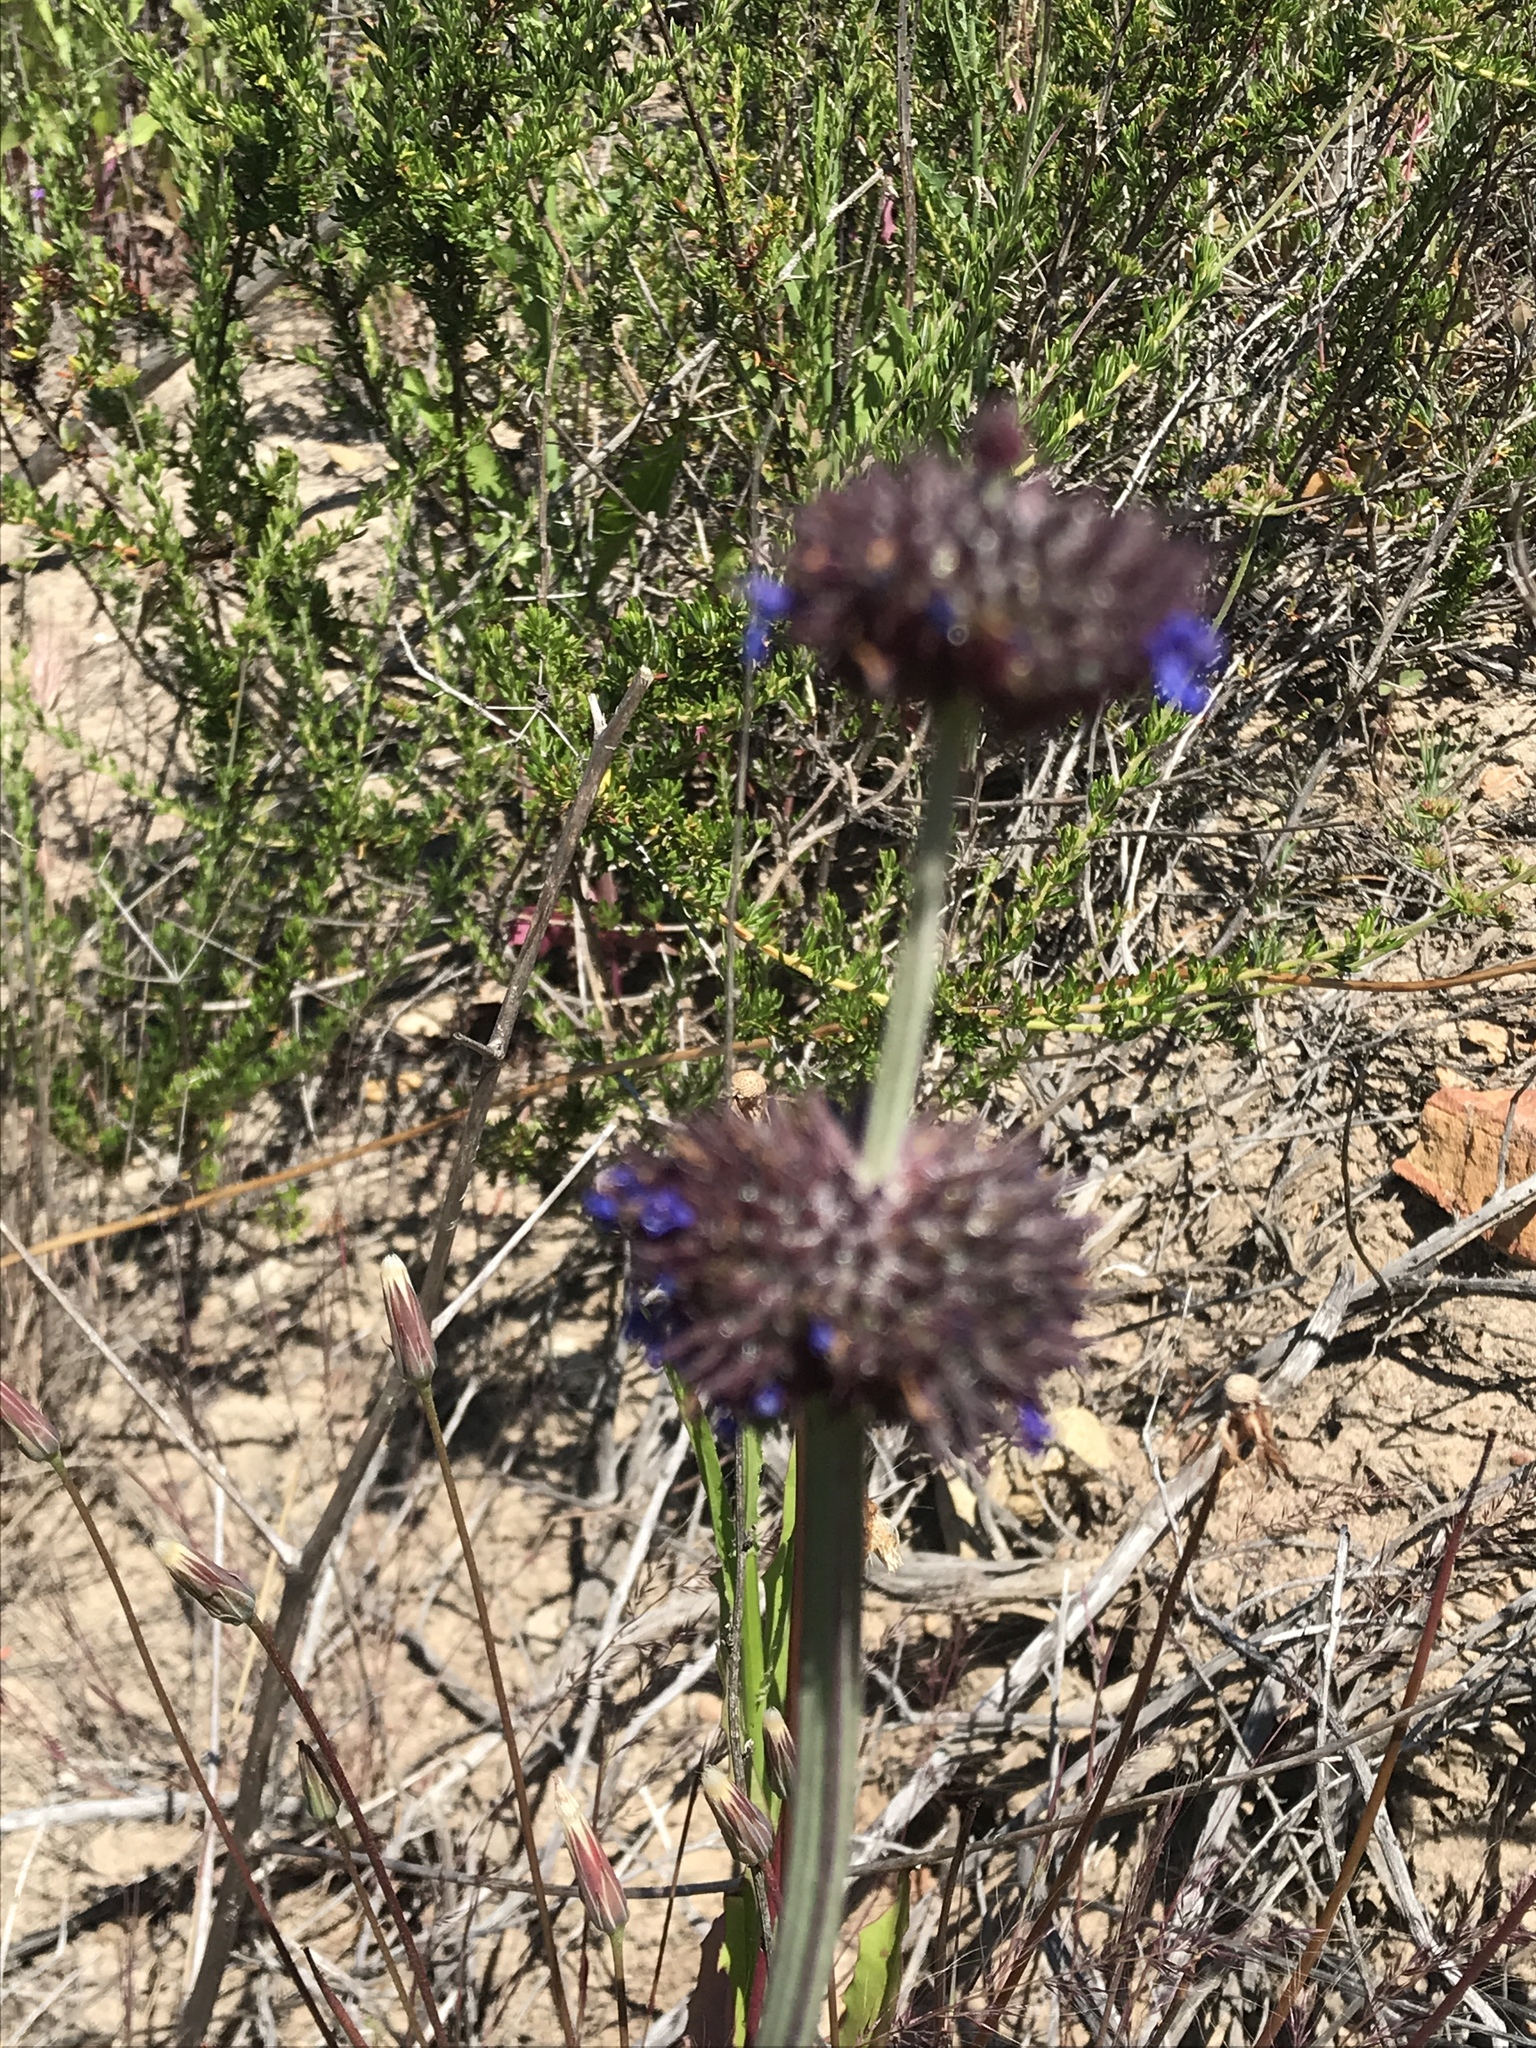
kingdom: Plantae
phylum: Tracheophyta
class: Magnoliopsida
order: Lamiales
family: Lamiaceae
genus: Salvia
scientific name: Salvia columbariae
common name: Chia
